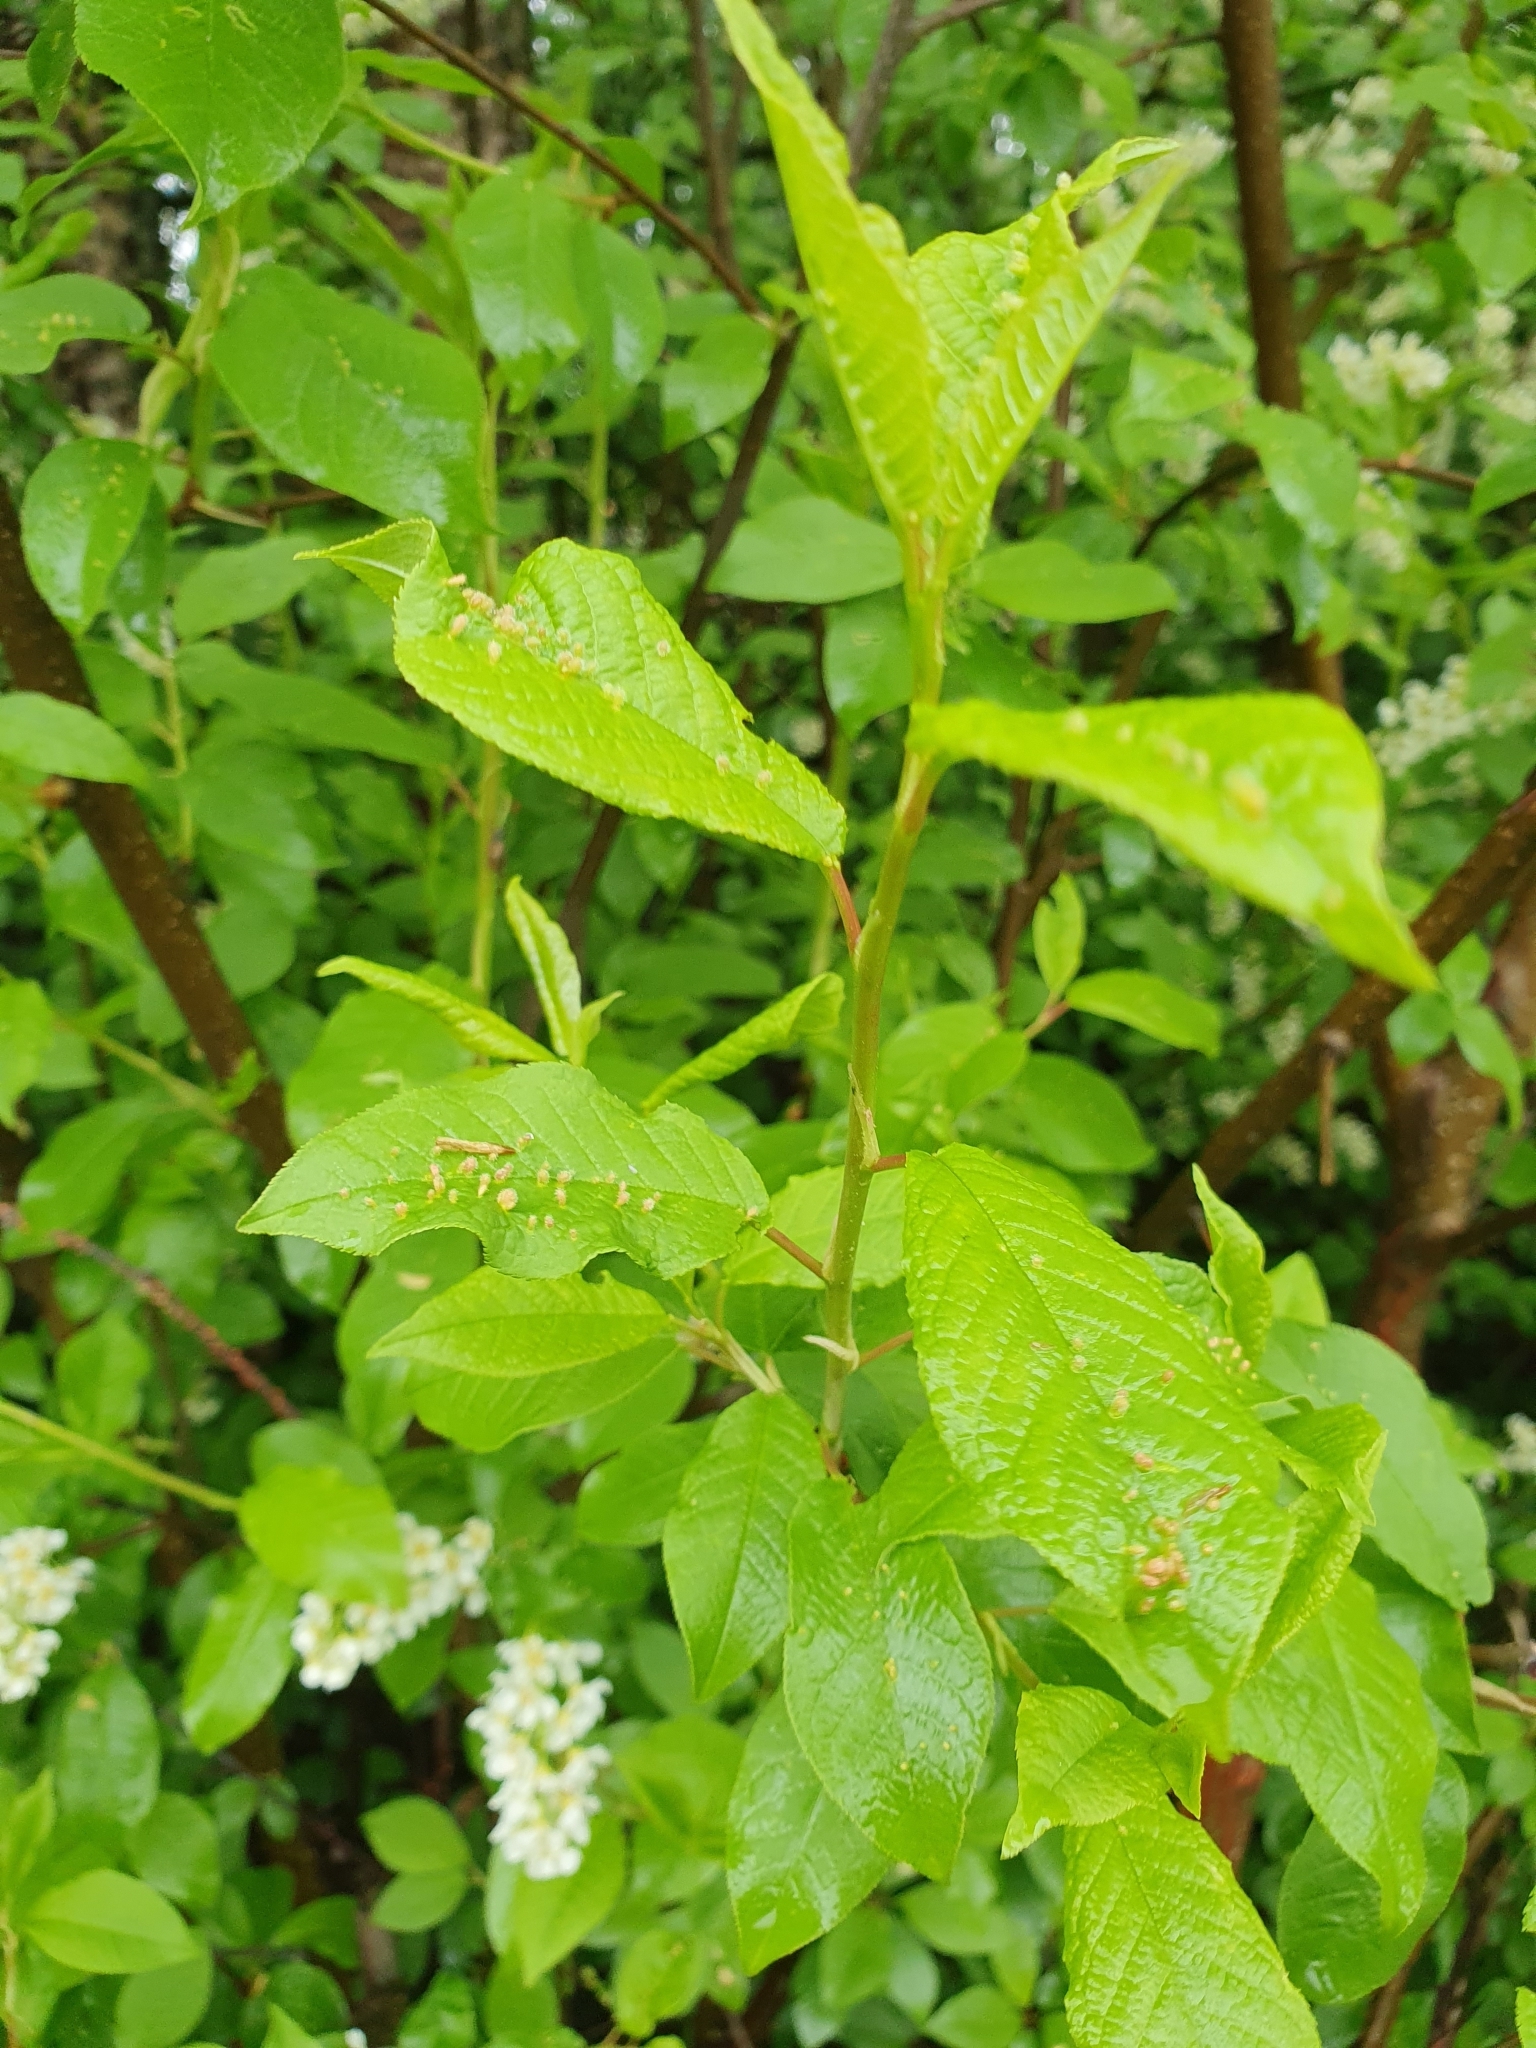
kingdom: Animalia
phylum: Arthropoda
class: Arachnida
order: Trombidiformes
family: Eriophyidae
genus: Phyllocoptes
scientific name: Phyllocoptes eupadi
